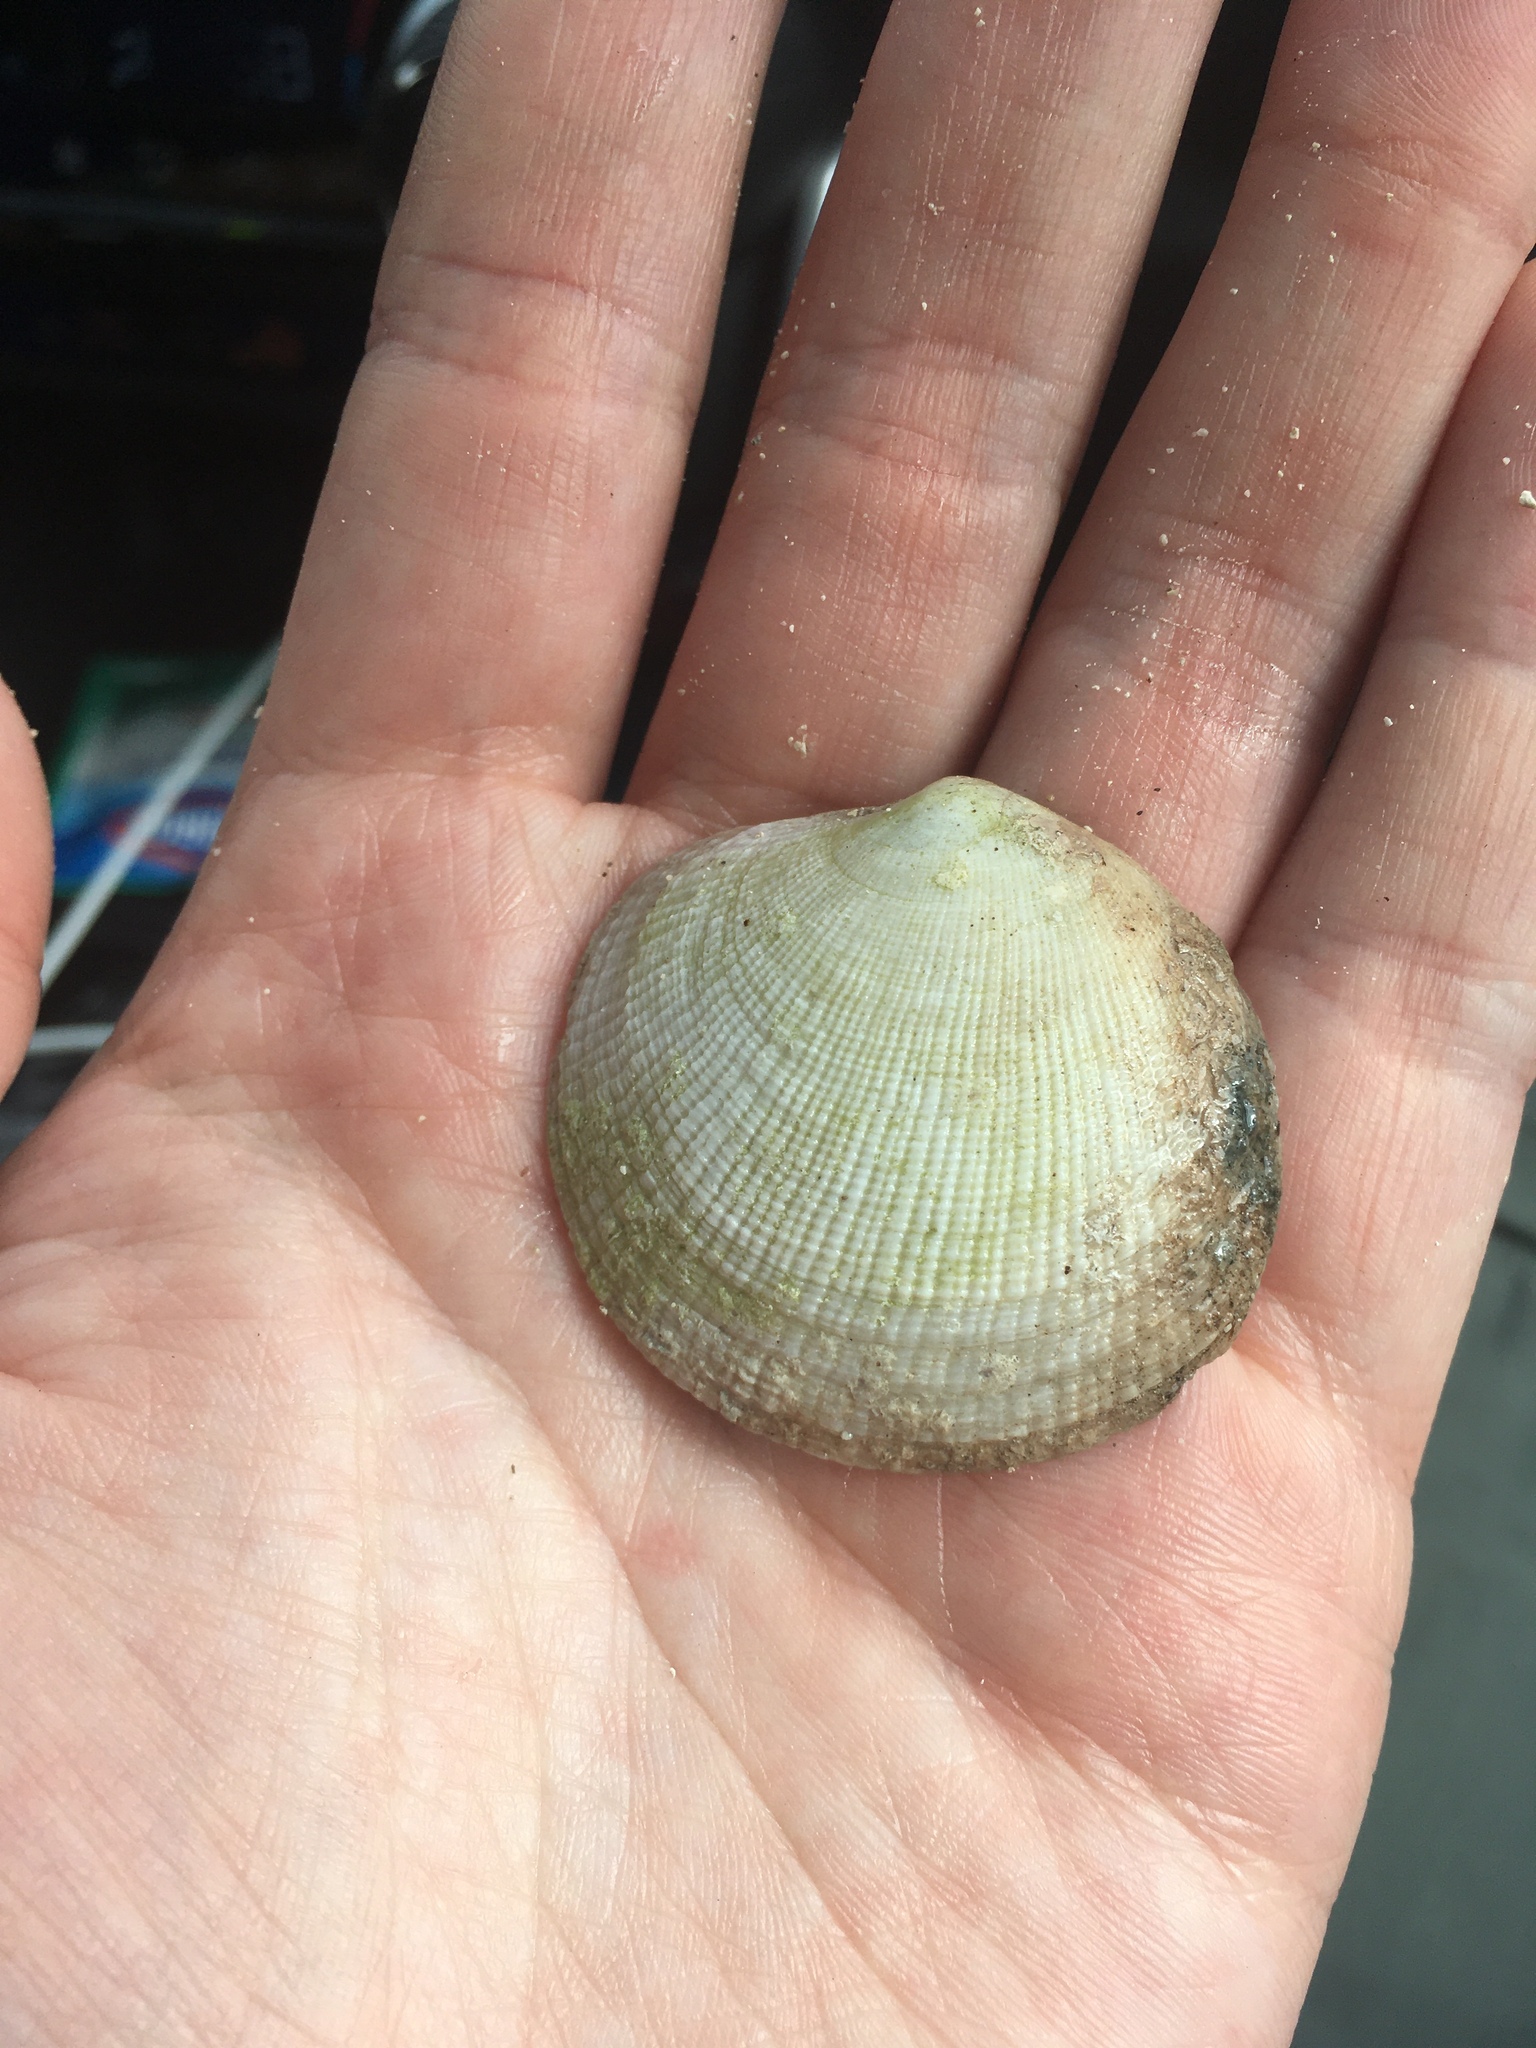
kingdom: Animalia
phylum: Mollusca
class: Bivalvia
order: Lucinida
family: Lucinidae
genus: Codakia
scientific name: Codakia orbicularis
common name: Tiger lucine
